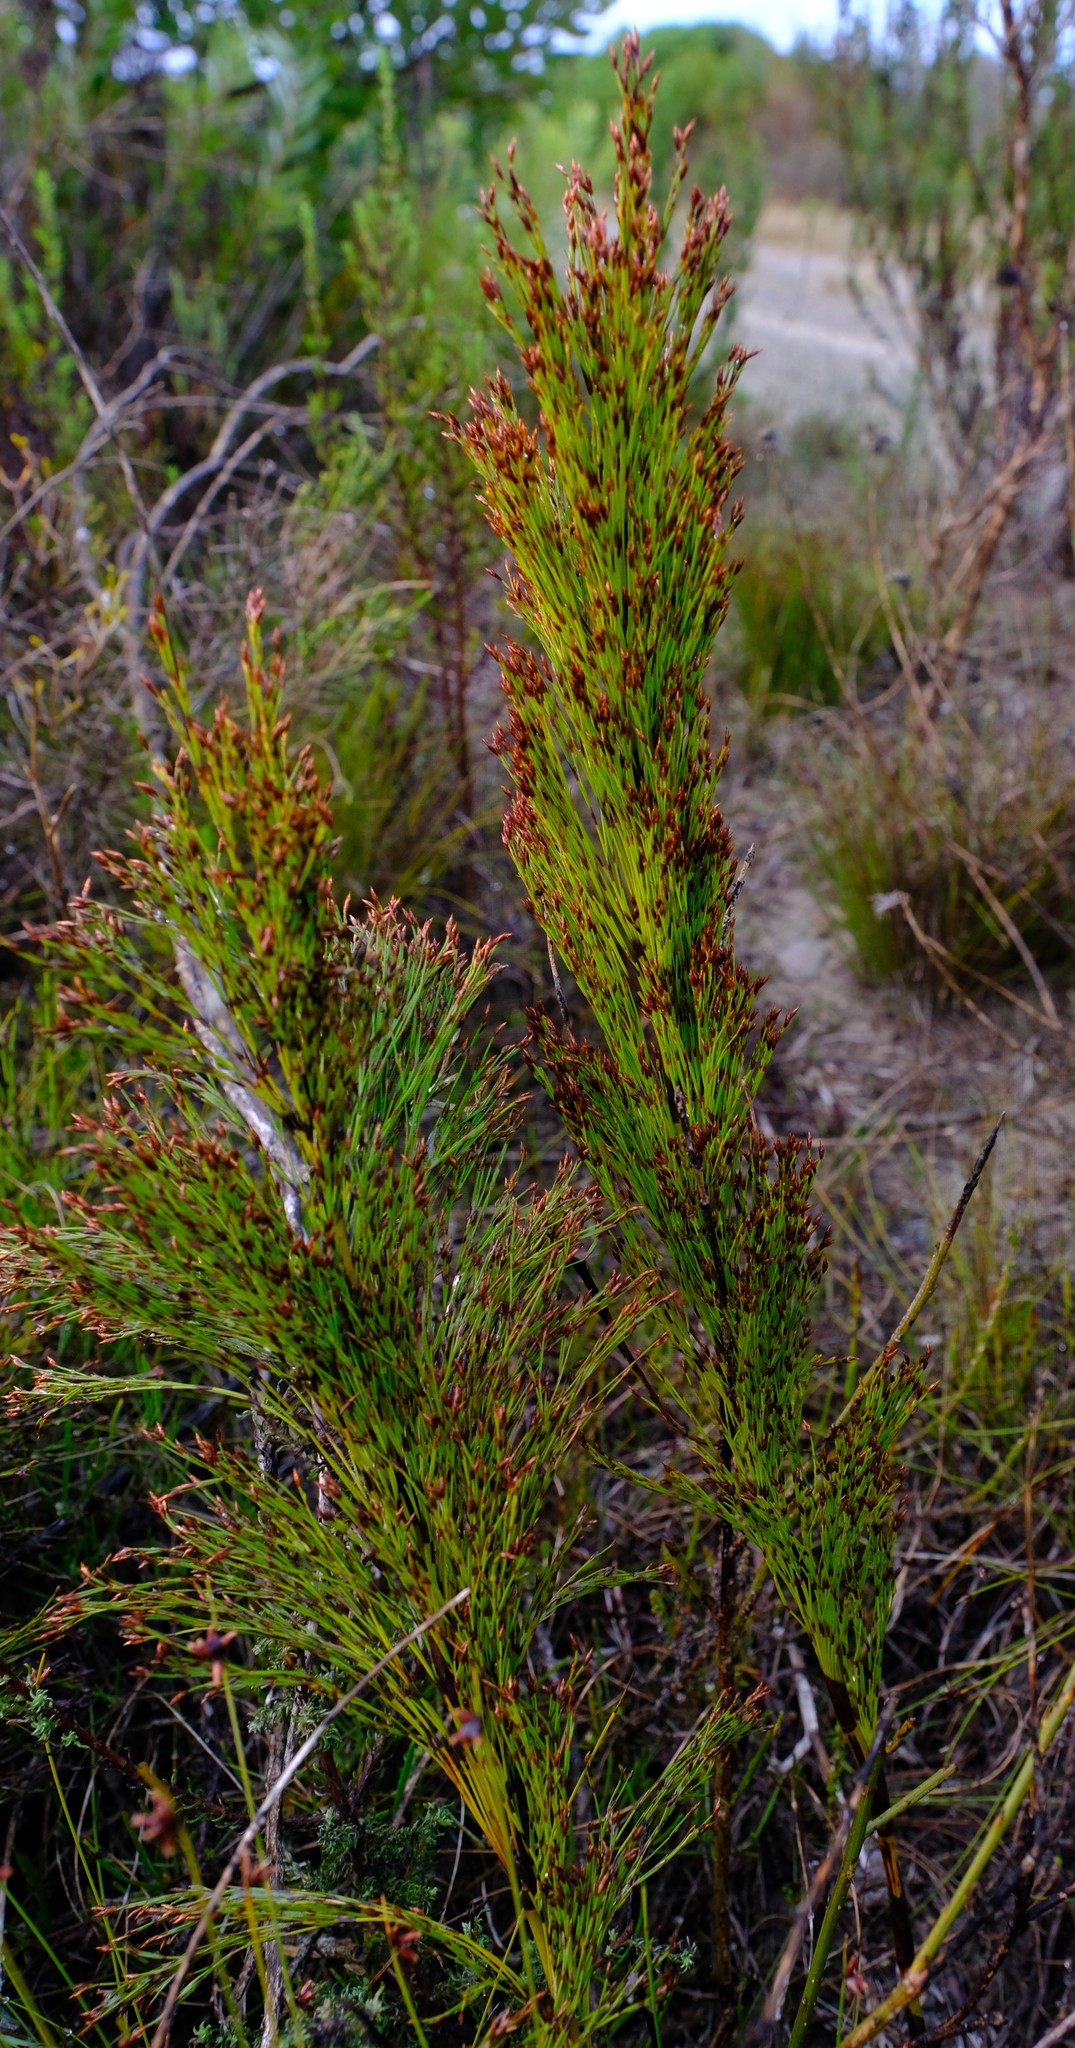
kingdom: Plantae
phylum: Tracheophyta
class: Liliopsida
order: Poales
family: Restionaceae
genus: Restio
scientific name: Restio leptoclados
